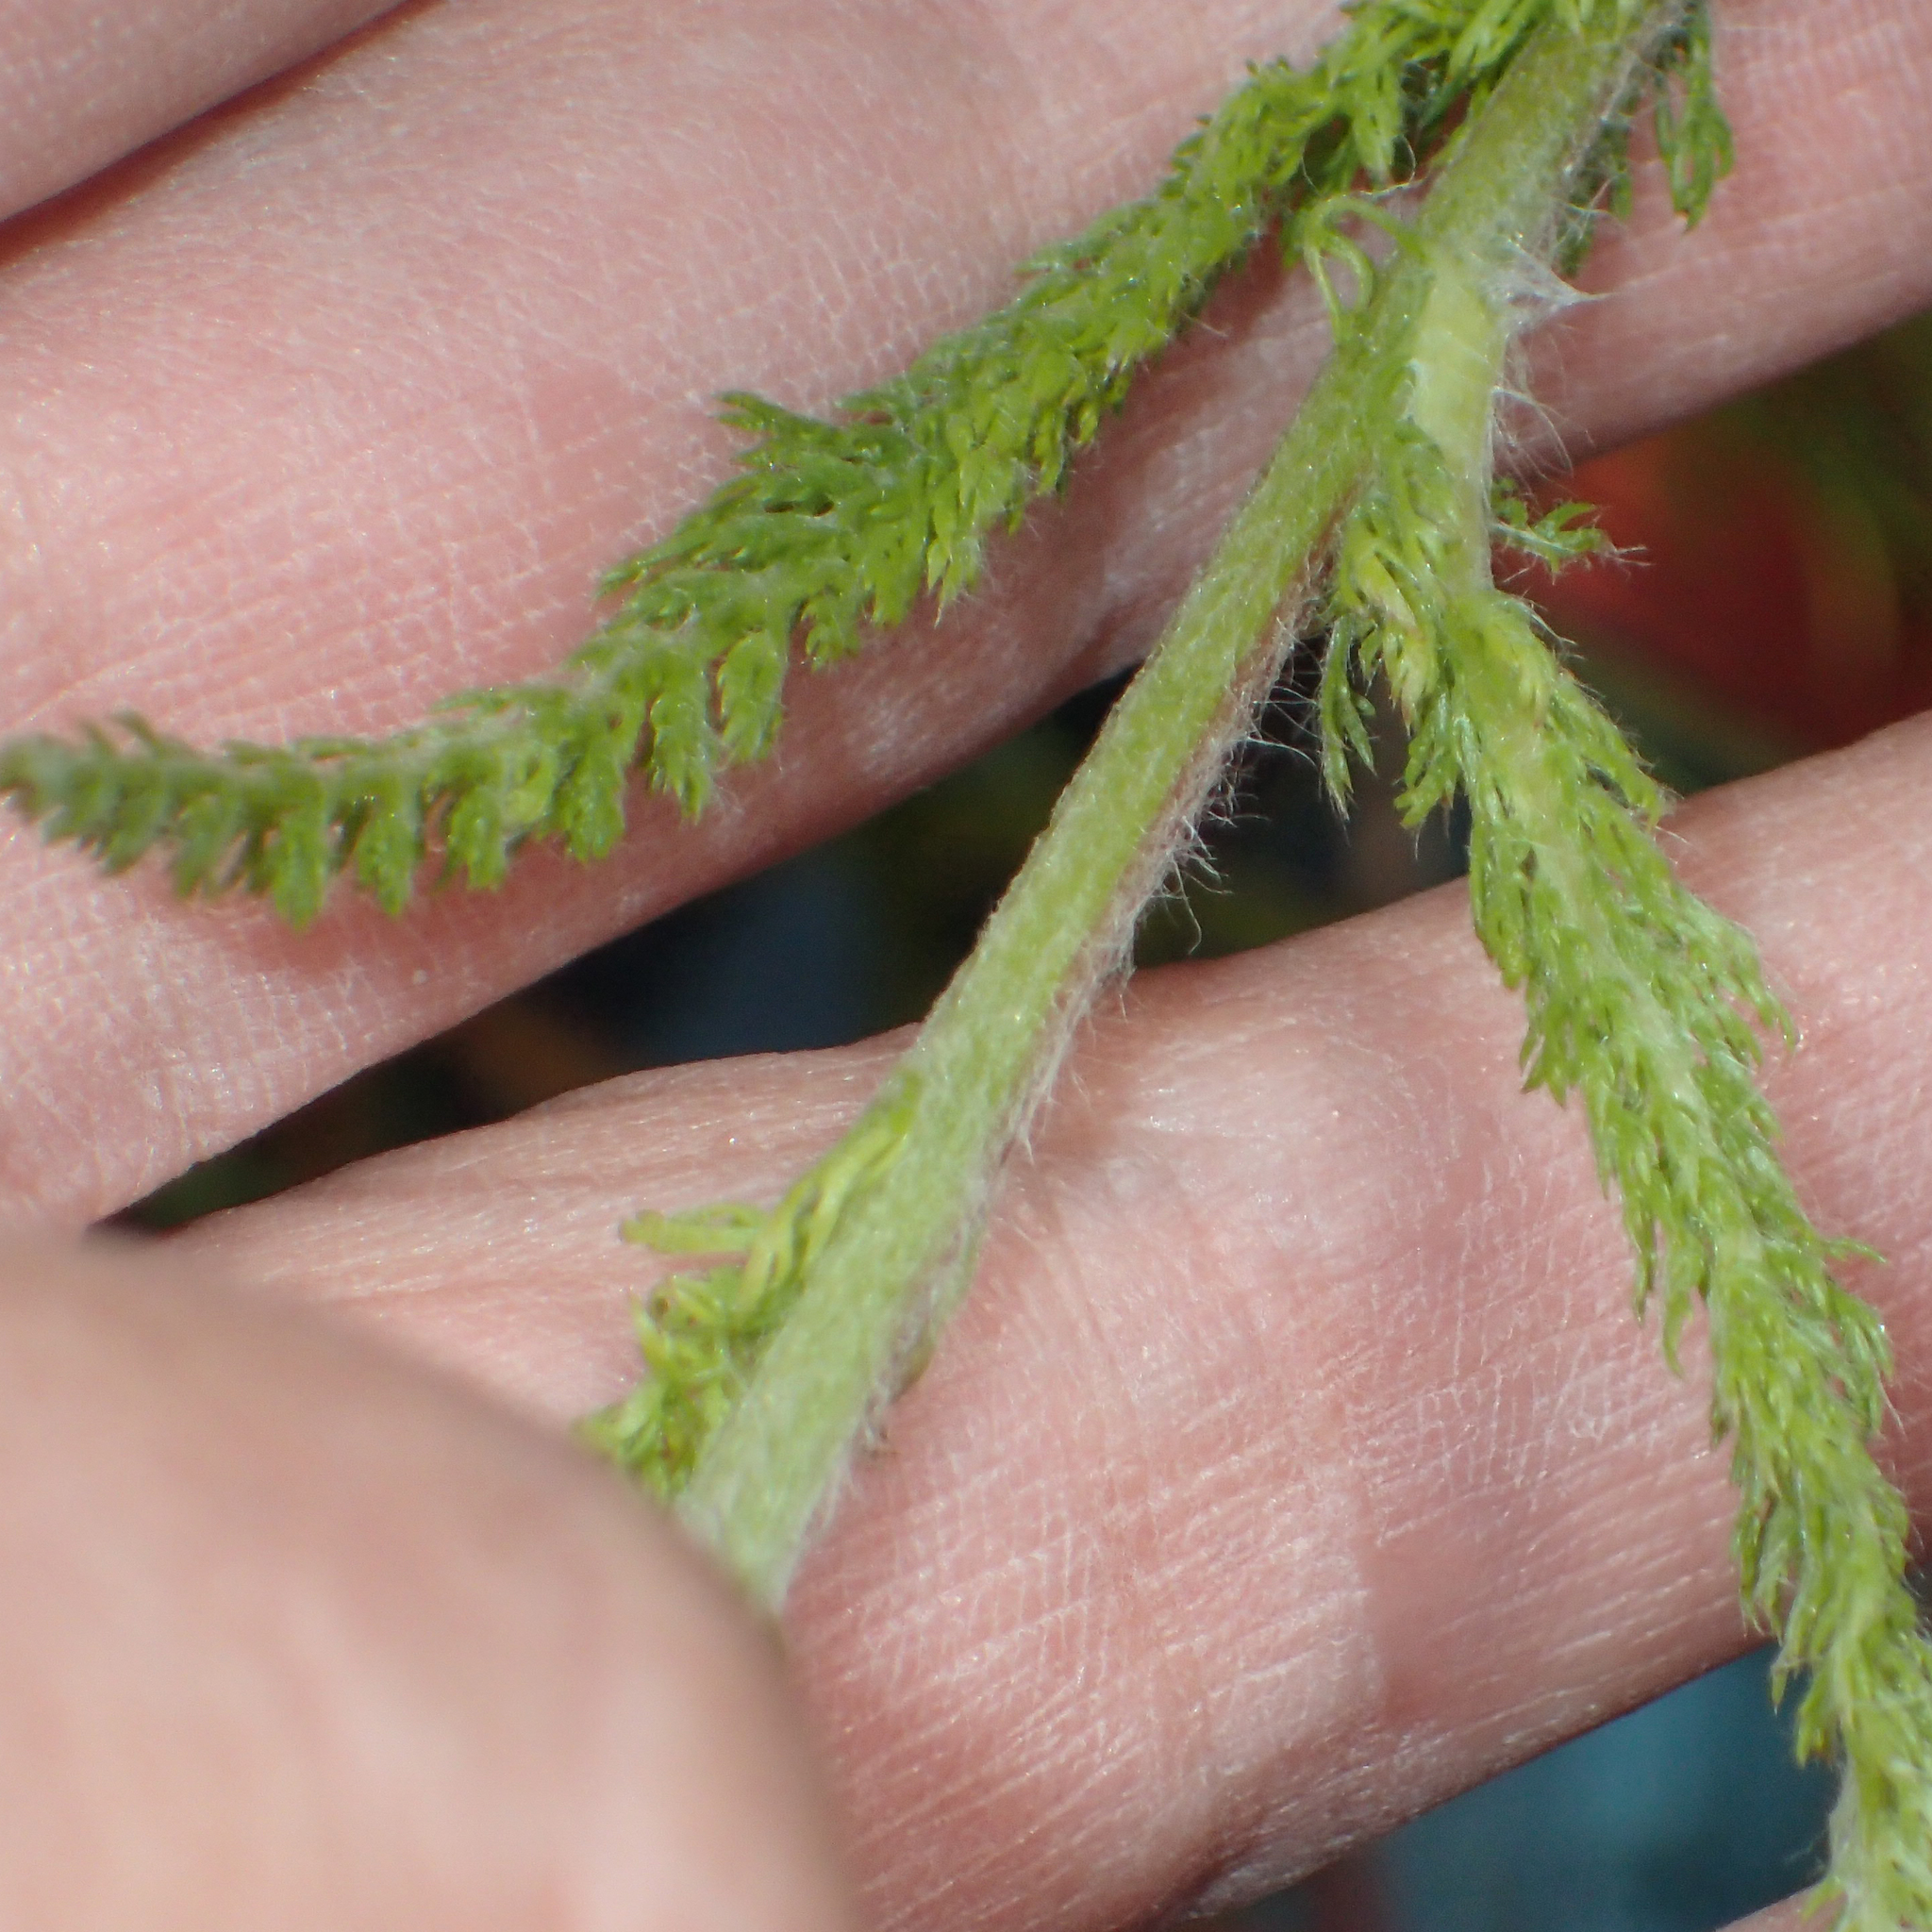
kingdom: Plantae
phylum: Tracheophyta
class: Magnoliopsida
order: Asterales
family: Asteraceae
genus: Achillea
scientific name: Achillea millefolium
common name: Yarrow
